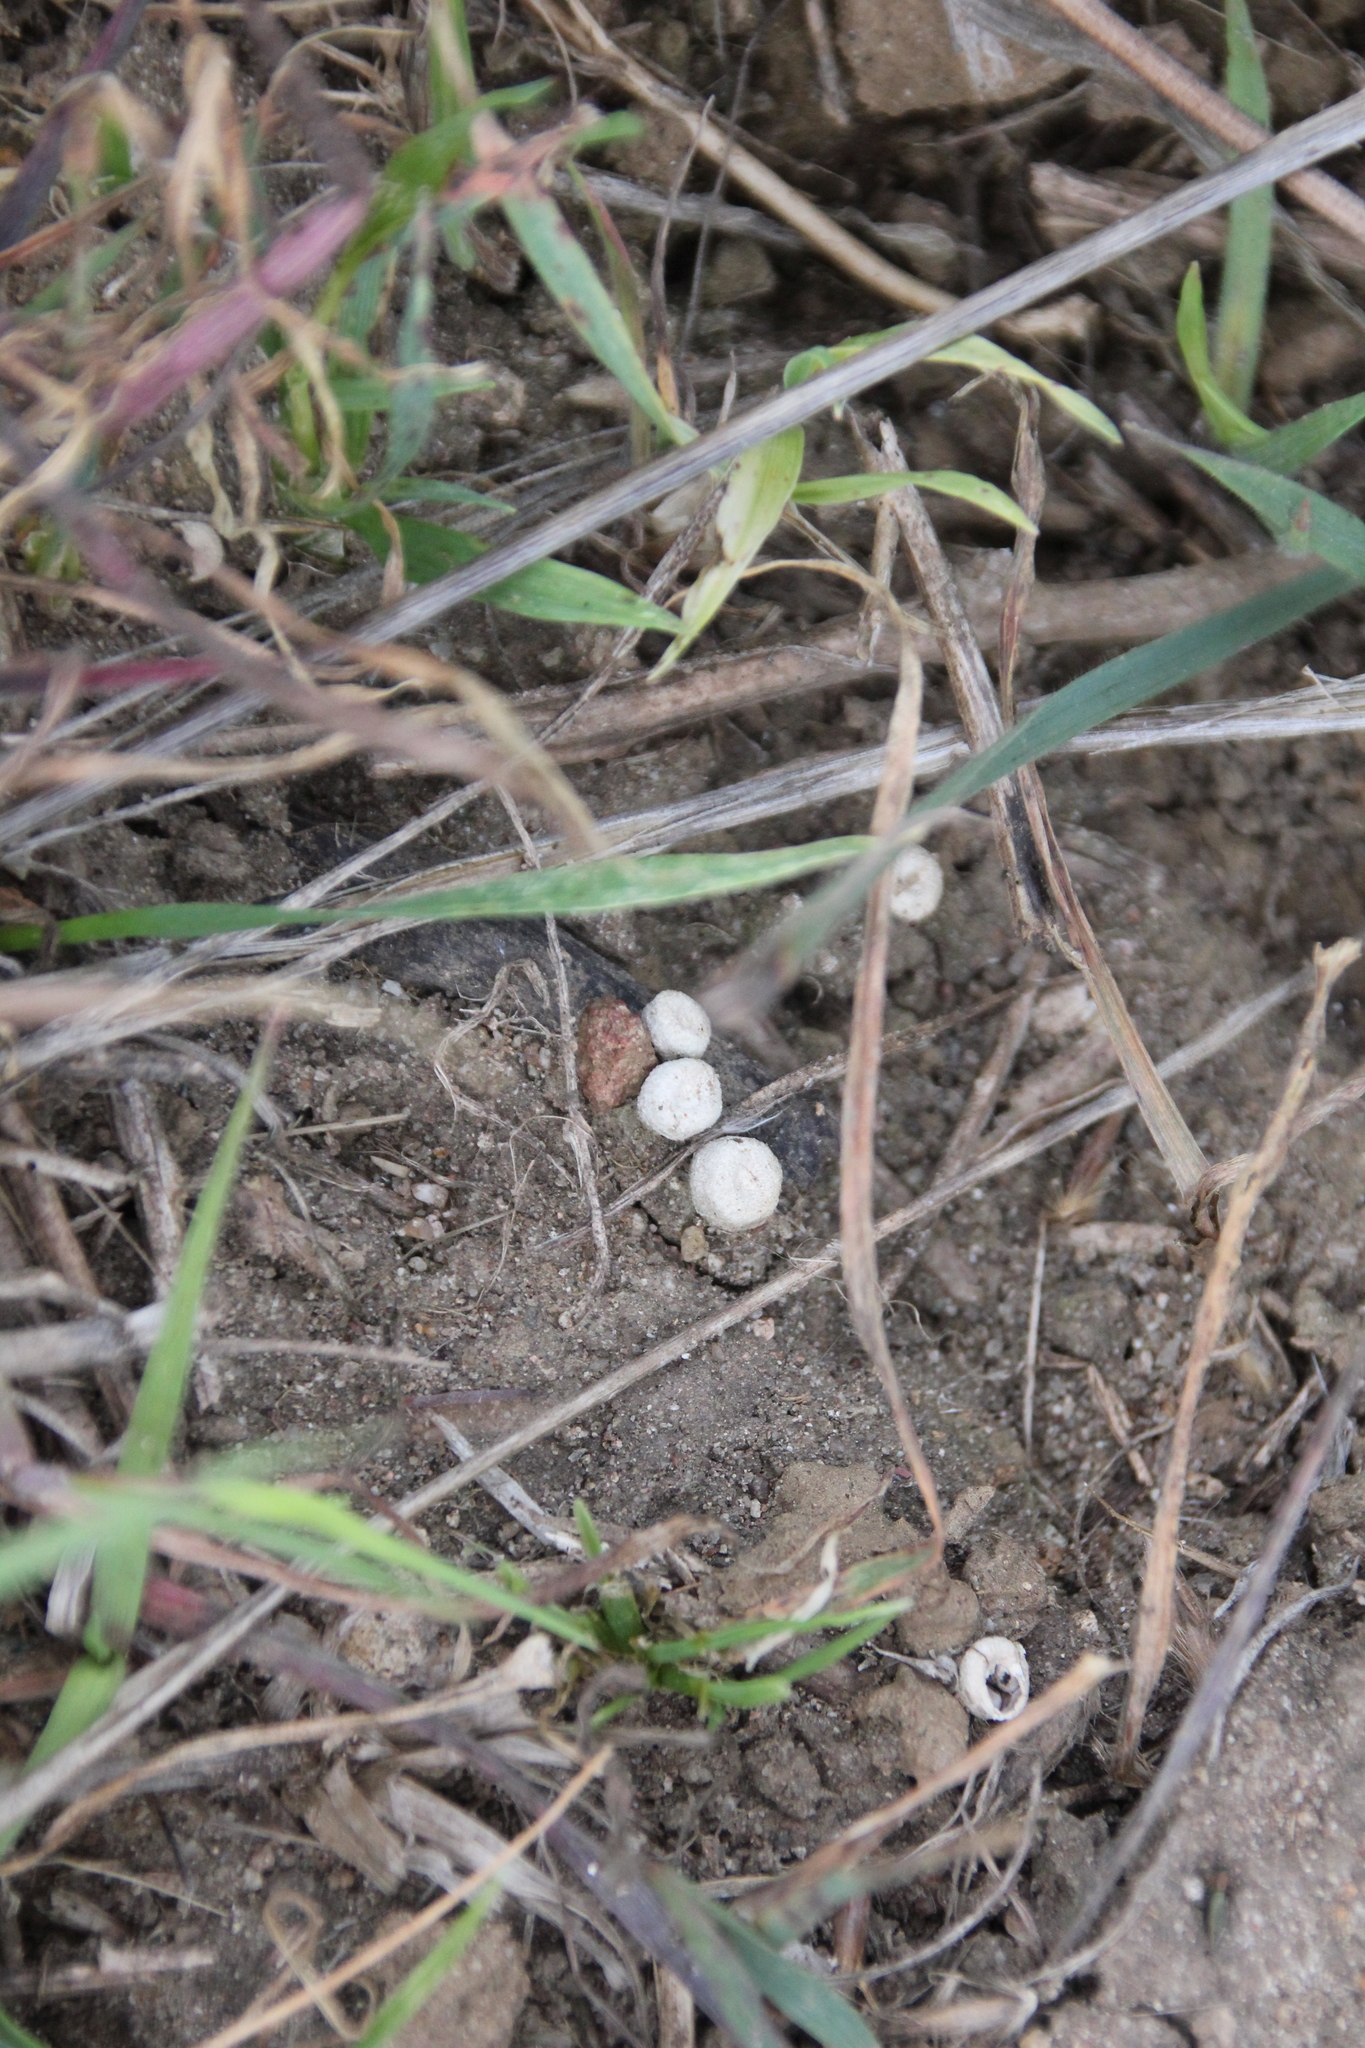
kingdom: Fungi
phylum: Basidiomycota
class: Agaricomycetes
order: Agaricales
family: Agaricaceae
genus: Cyathus
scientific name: Cyathus olla
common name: Field bird's nest
